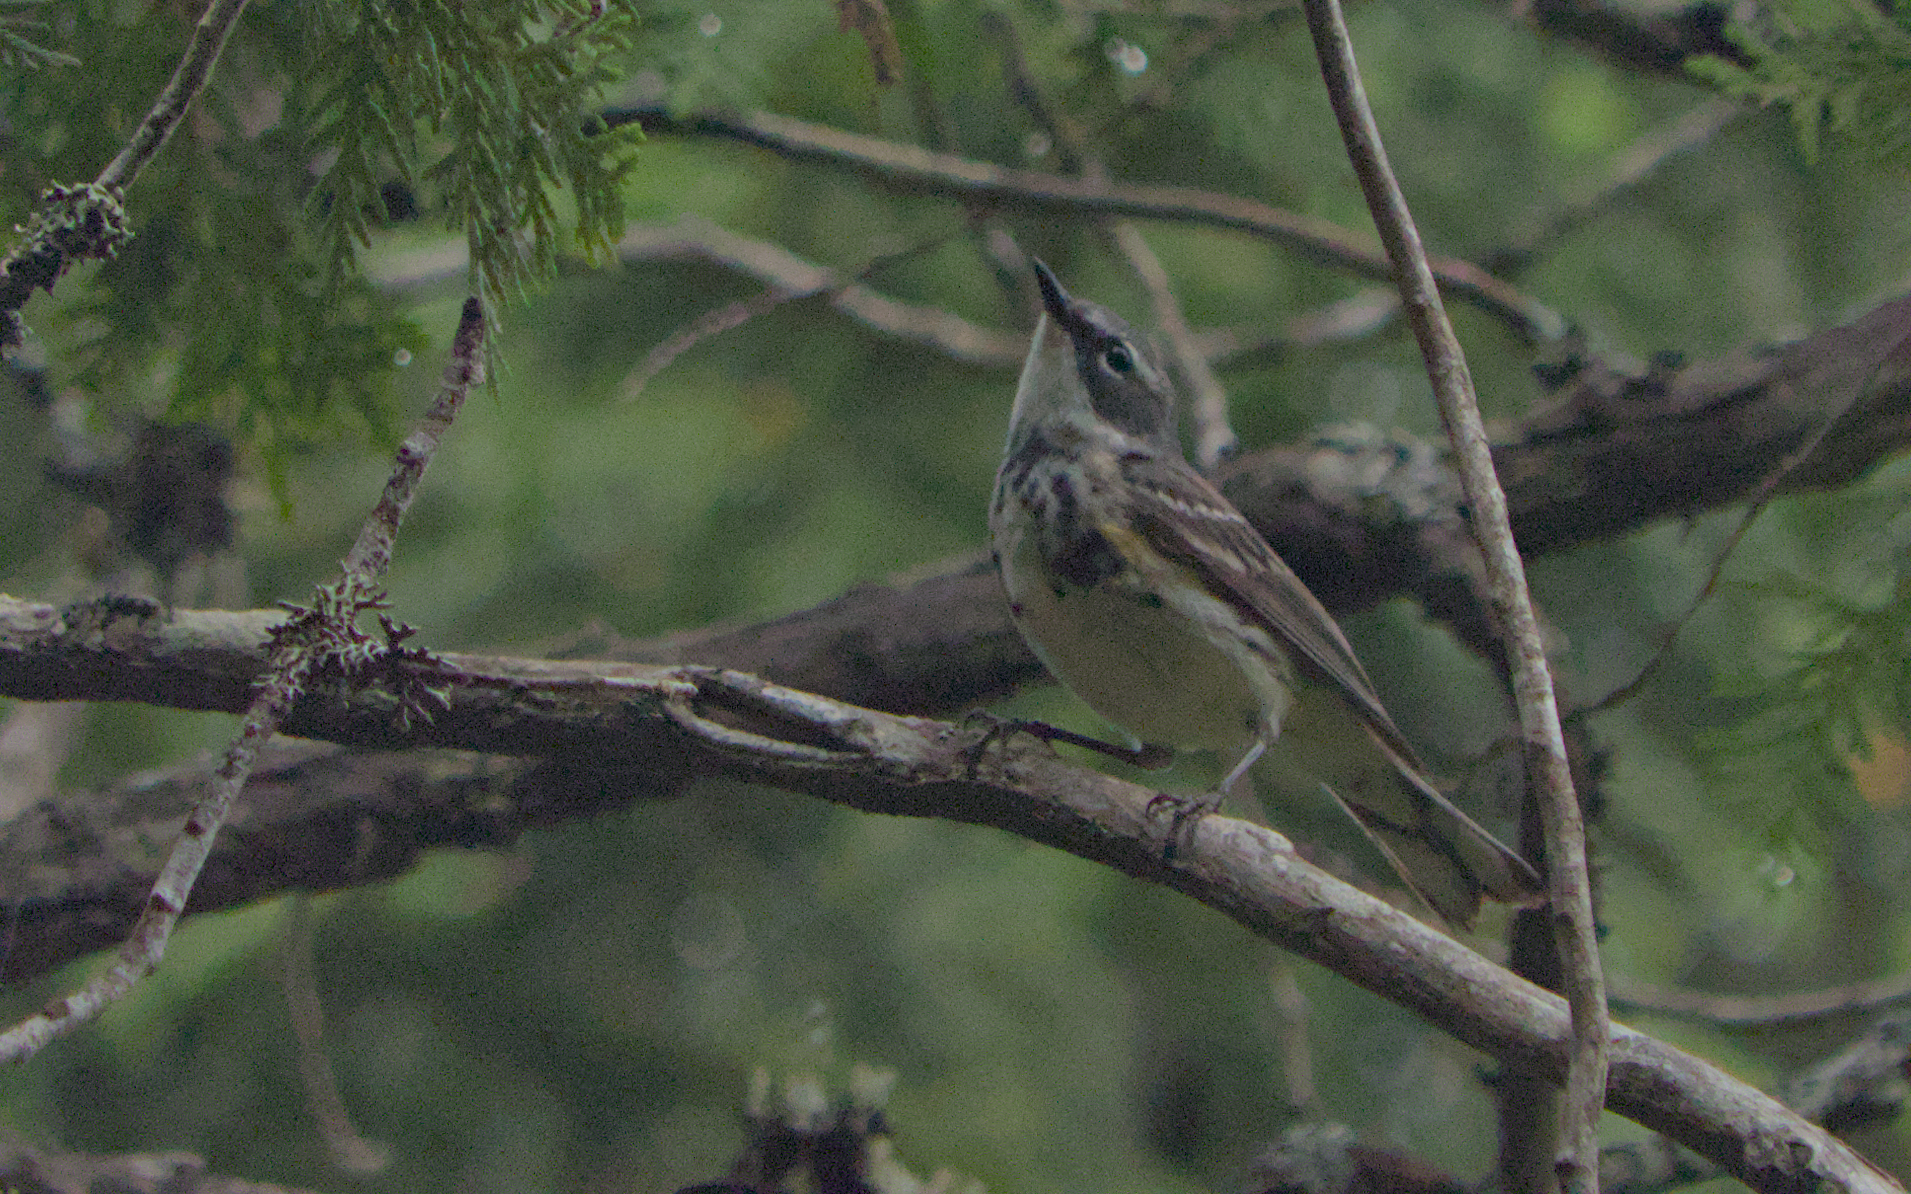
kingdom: Animalia
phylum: Chordata
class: Aves
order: Passeriformes
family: Parulidae
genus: Setophaga
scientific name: Setophaga coronata
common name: Myrtle warbler
